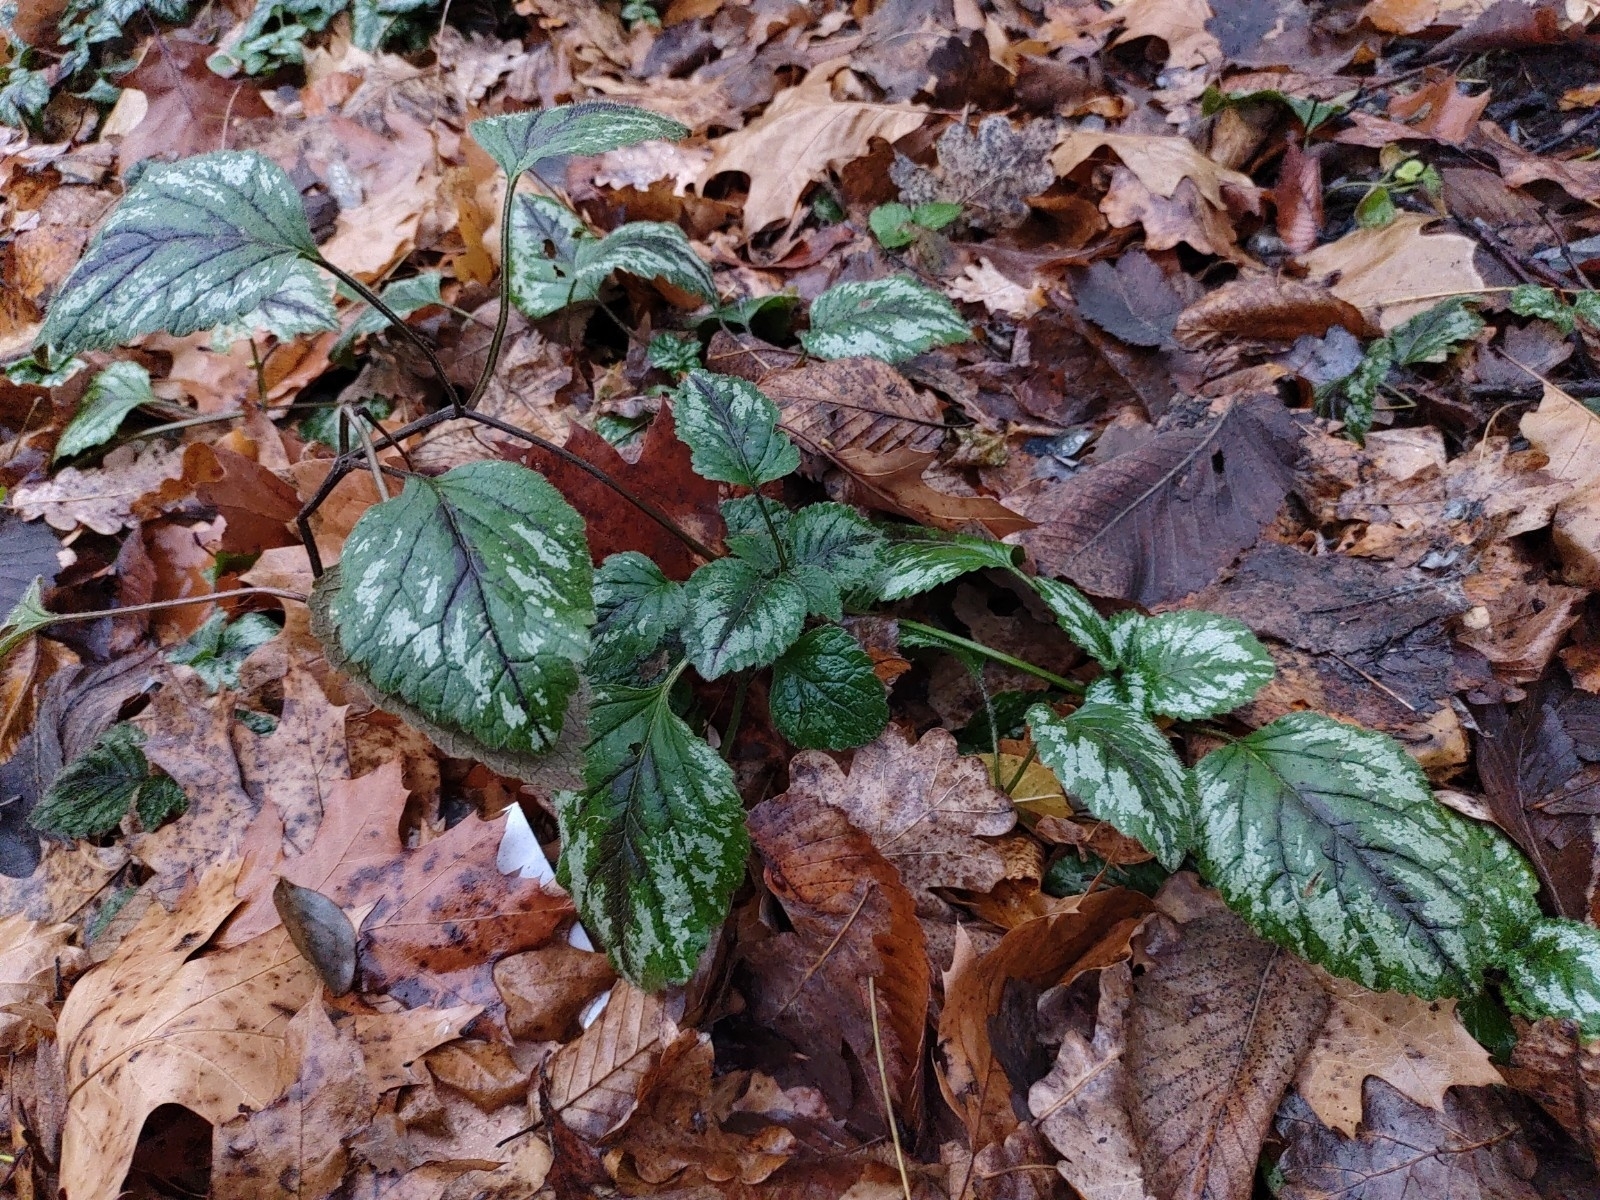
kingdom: Plantae
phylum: Tracheophyta
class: Magnoliopsida
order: Lamiales
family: Lamiaceae
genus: Lamium
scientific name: Lamium galeobdolon
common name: Yellow archangel
